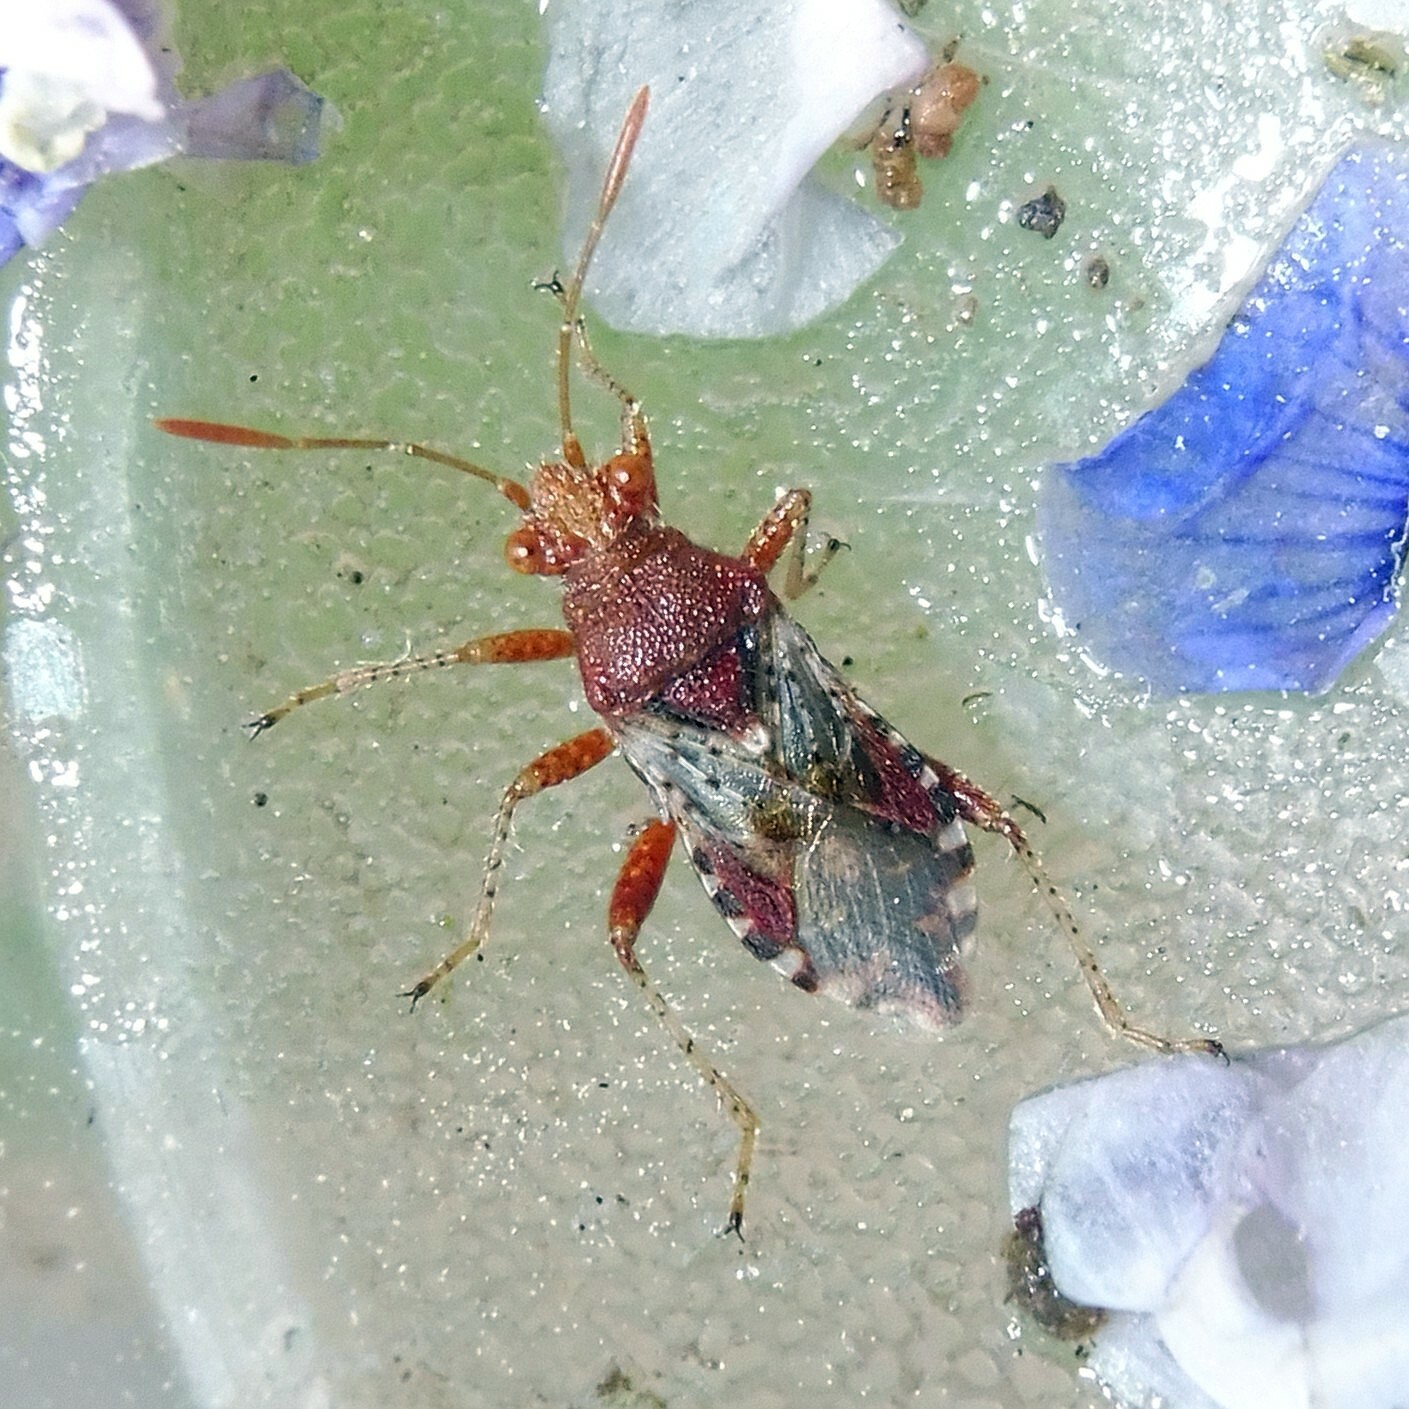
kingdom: Animalia
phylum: Arthropoda
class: Insecta
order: Hemiptera
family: Rhopalidae
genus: Rhopalus
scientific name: Rhopalus subrufus
